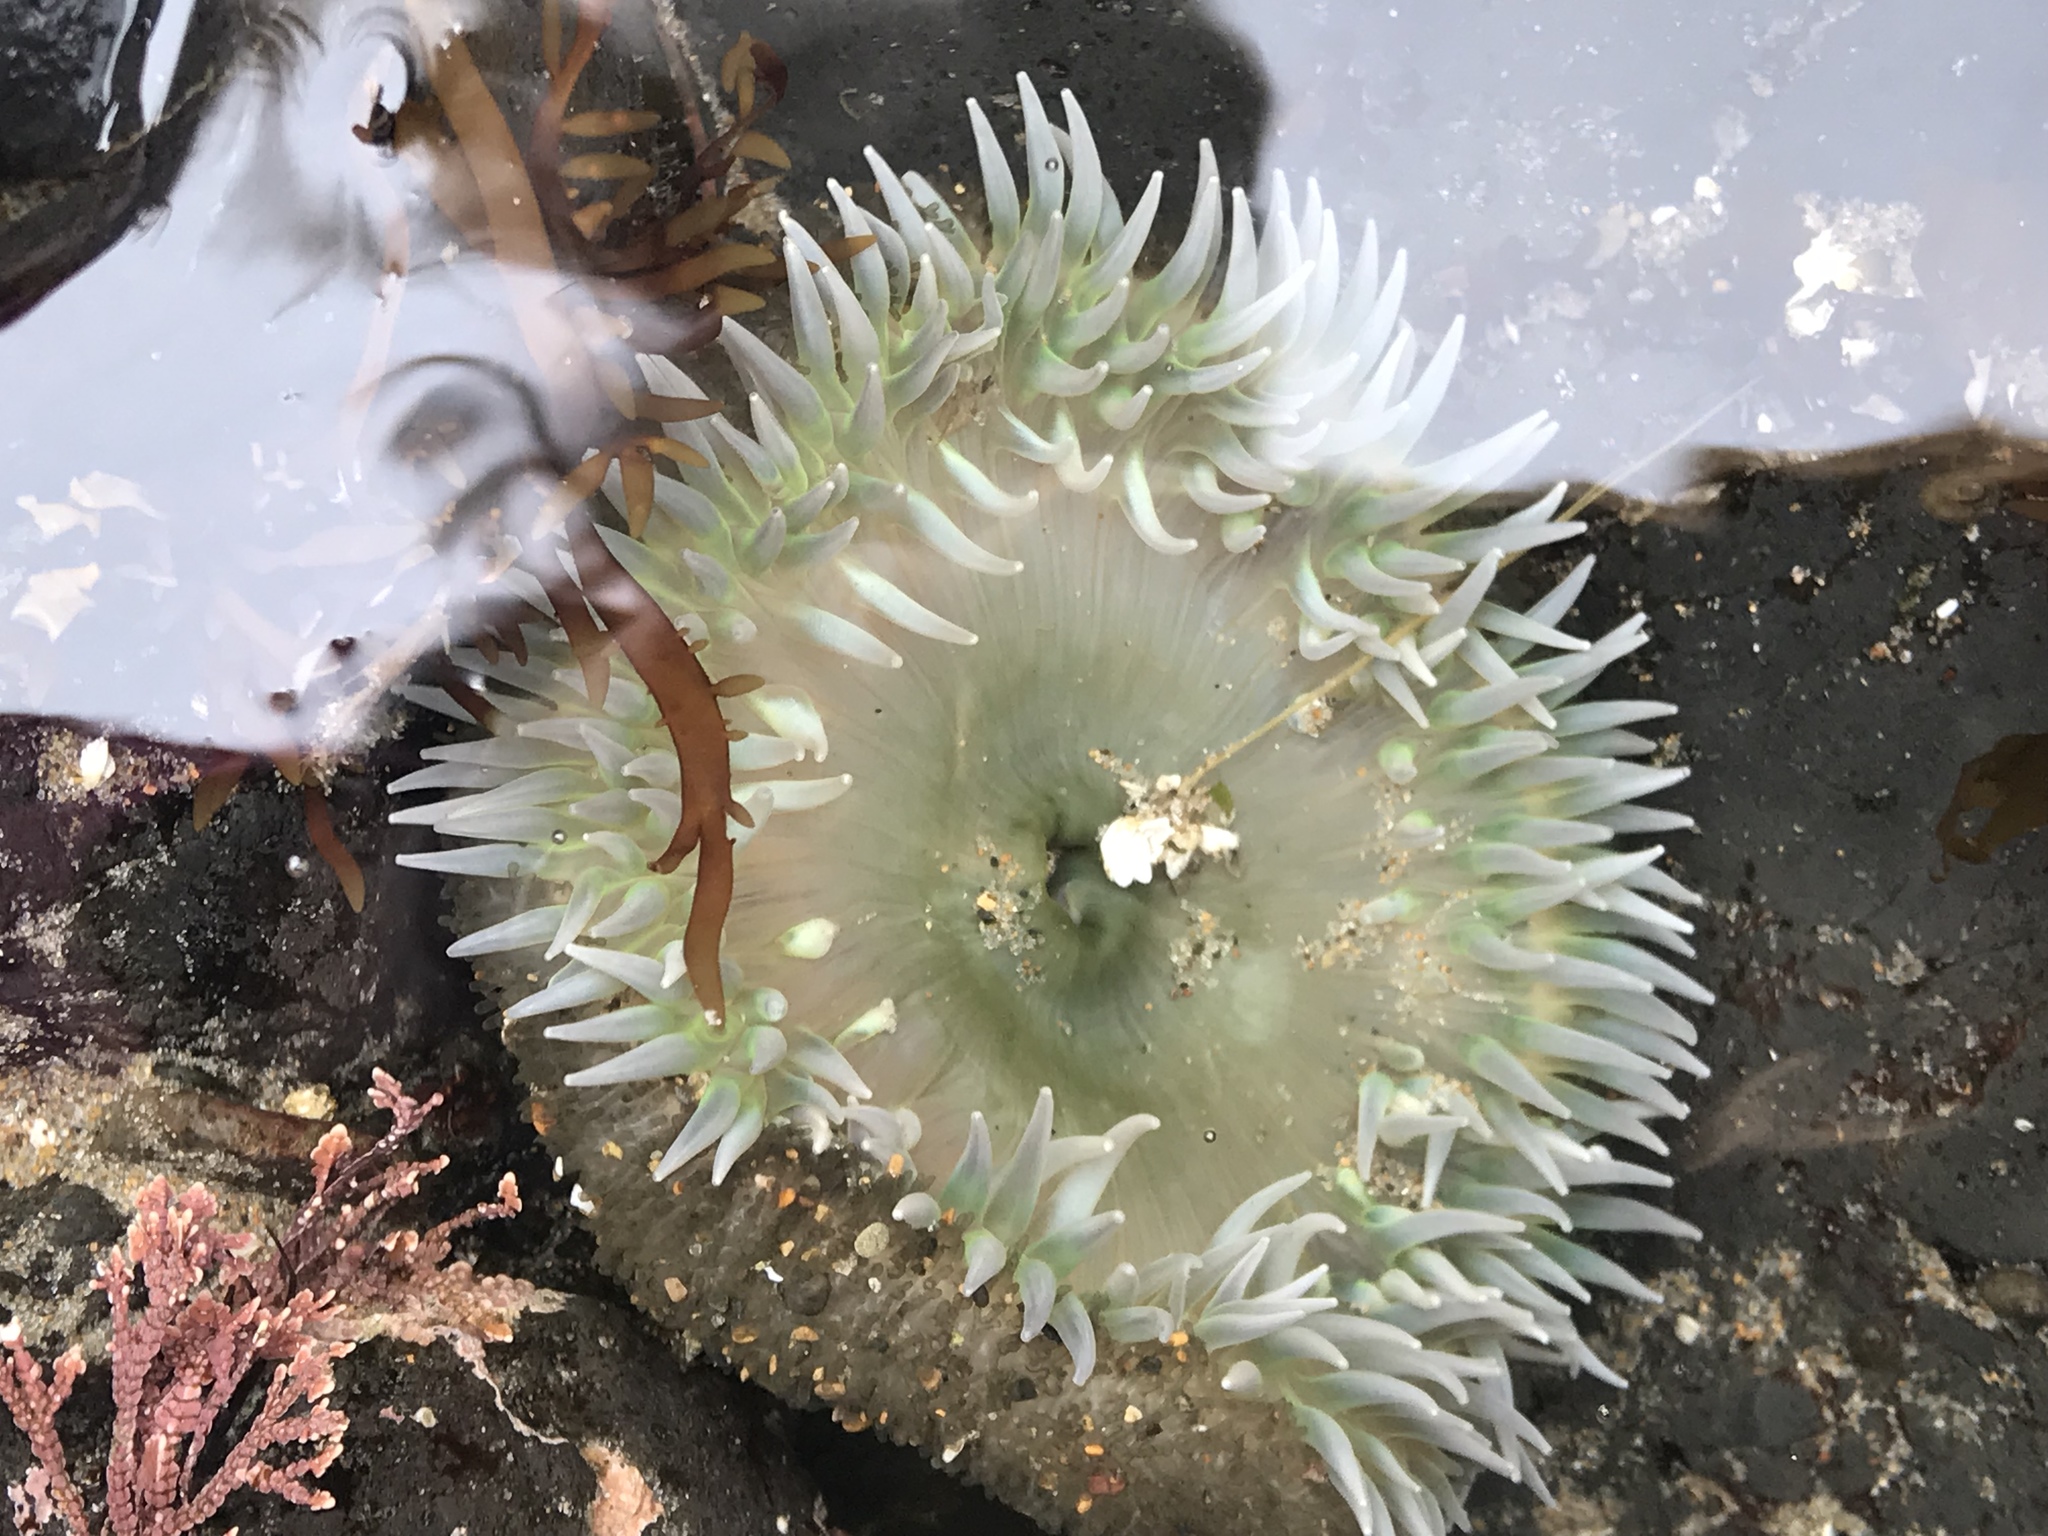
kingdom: Animalia
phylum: Cnidaria
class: Anthozoa
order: Actiniaria
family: Actiniidae
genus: Anthopleura
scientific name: Anthopleura xanthogrammica
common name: Giant green anemone
